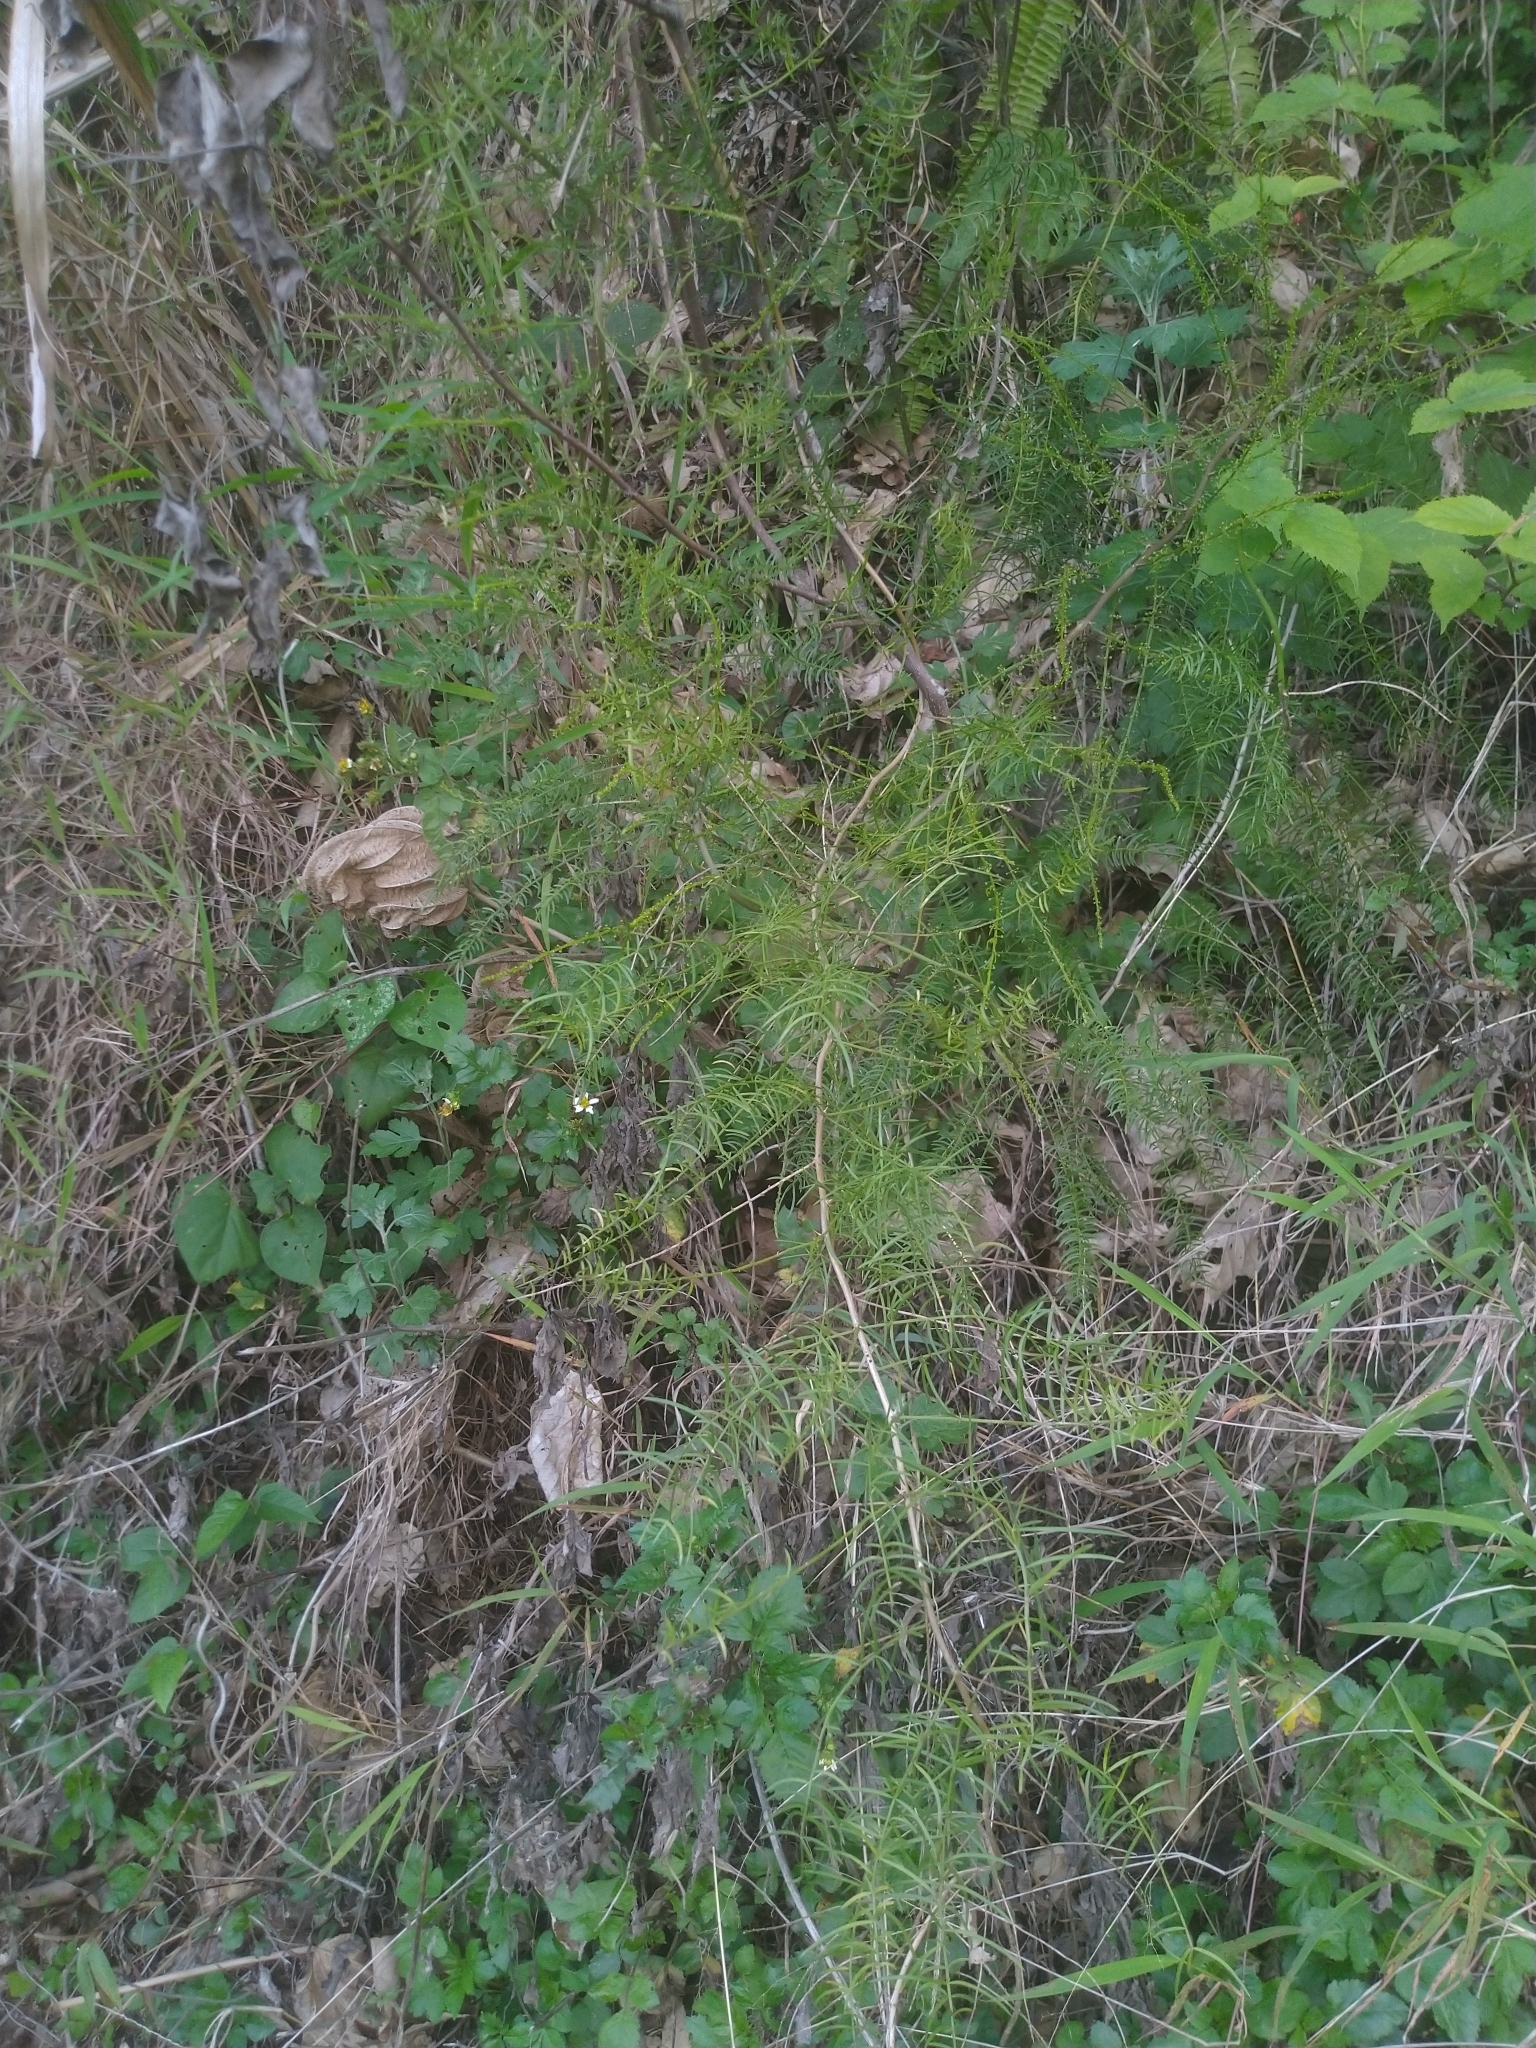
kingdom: Plantae
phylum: Tracheophyta
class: Liliopsida
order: Asparagales
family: Asparagaceae
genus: Asparagus
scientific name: Asparagus cochinchinensis
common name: Chinese asparagus
